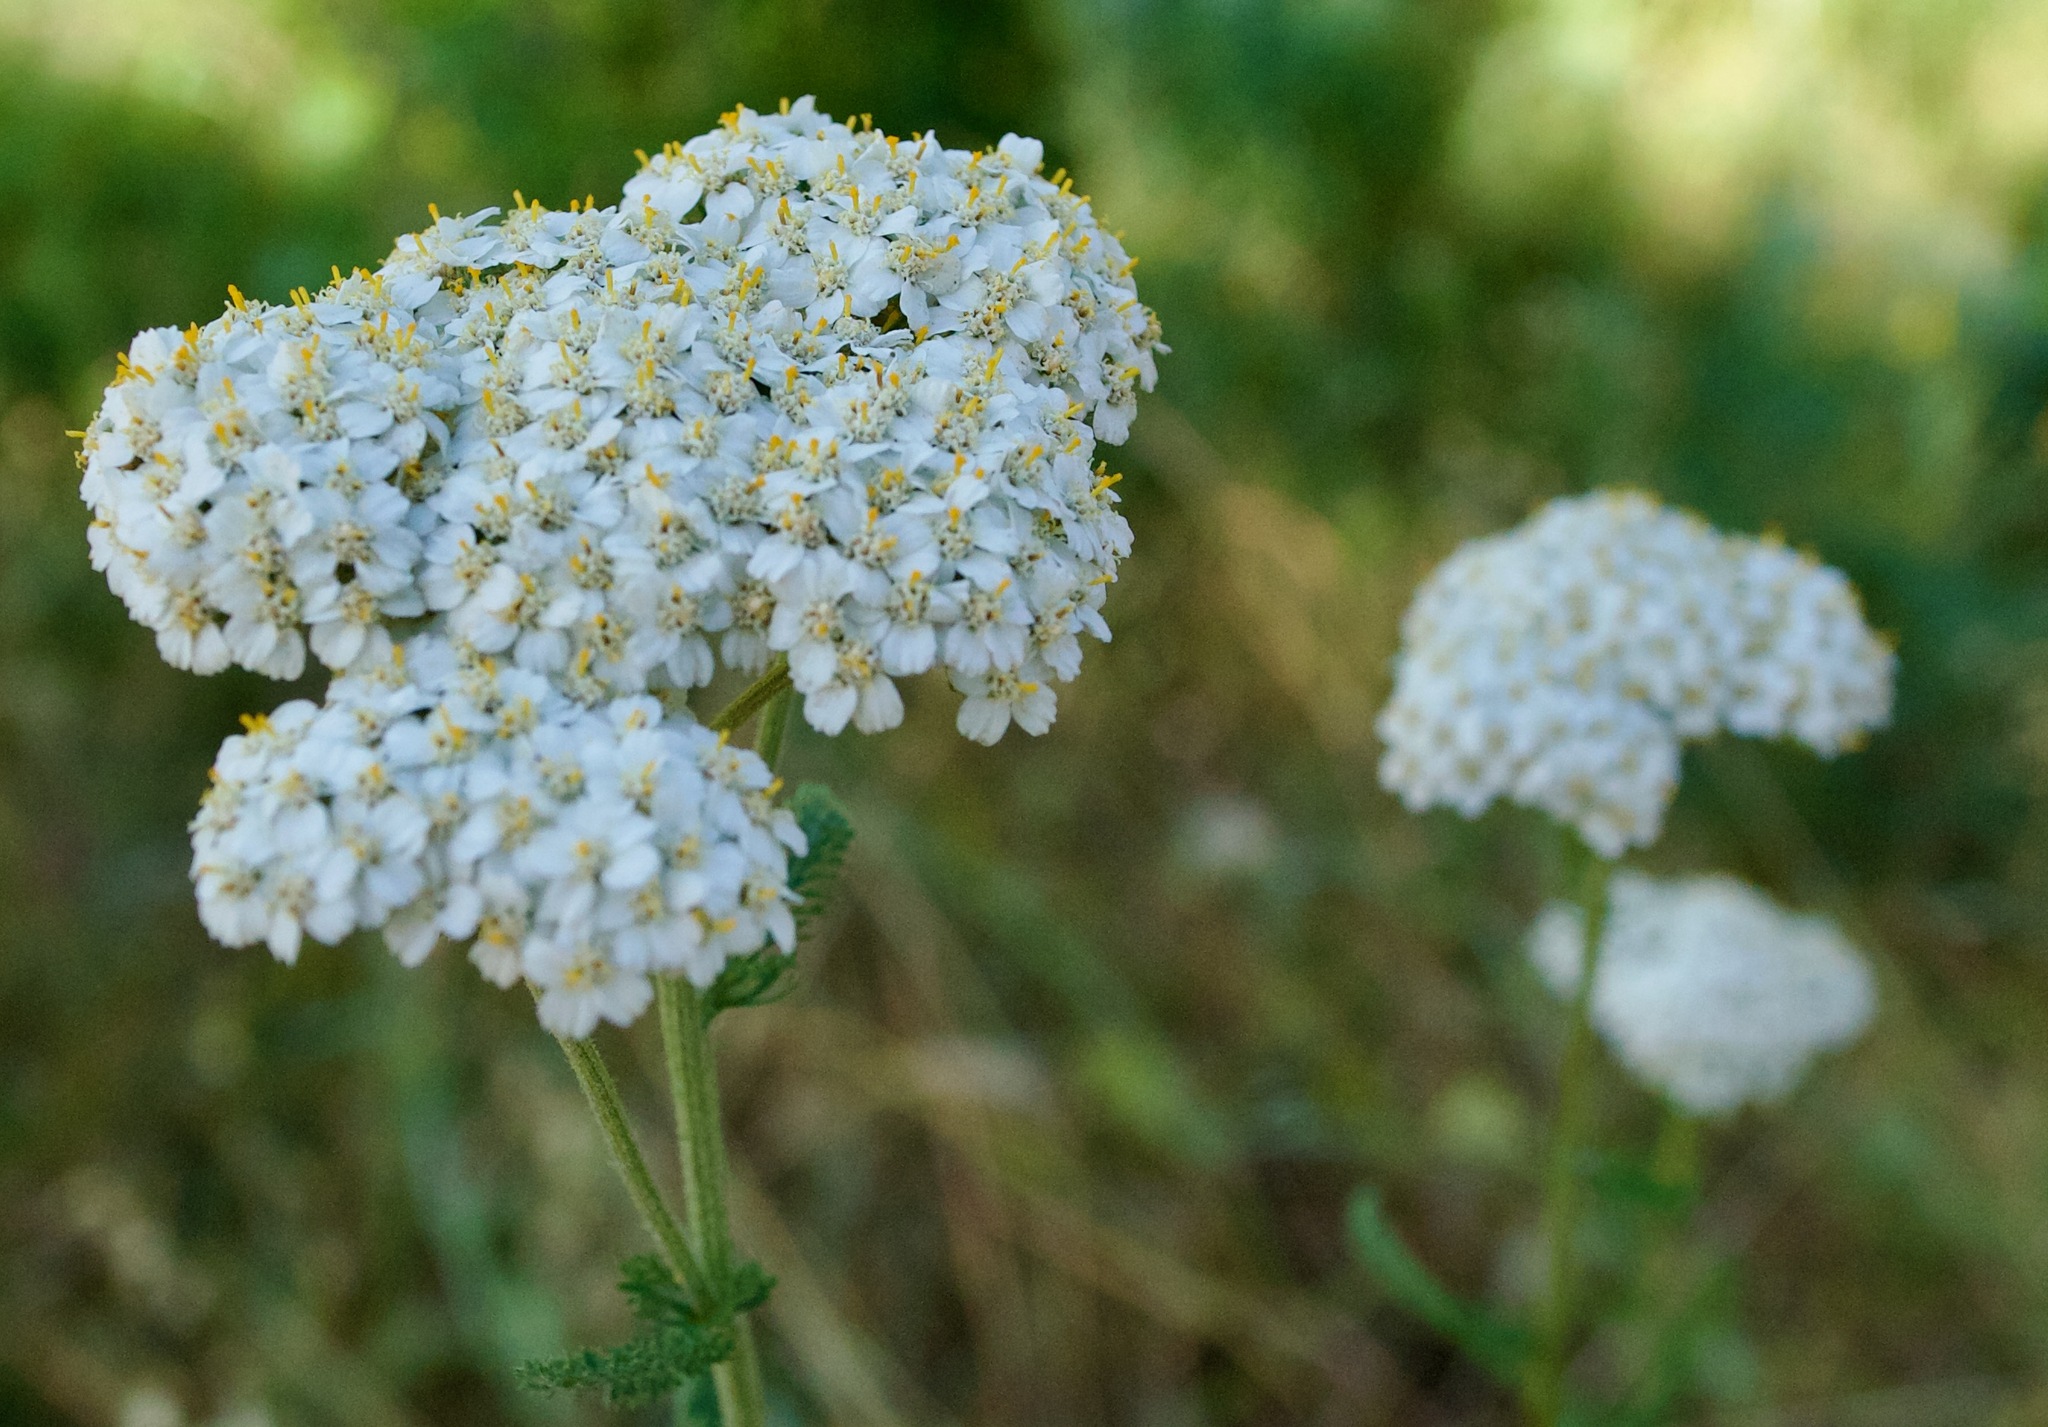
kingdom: Plantae
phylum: Tracheophyta
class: Magnoliopsida
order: Asterales
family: Asteraceae
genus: Achillea
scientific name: Achillea millefolium
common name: Yarrow
